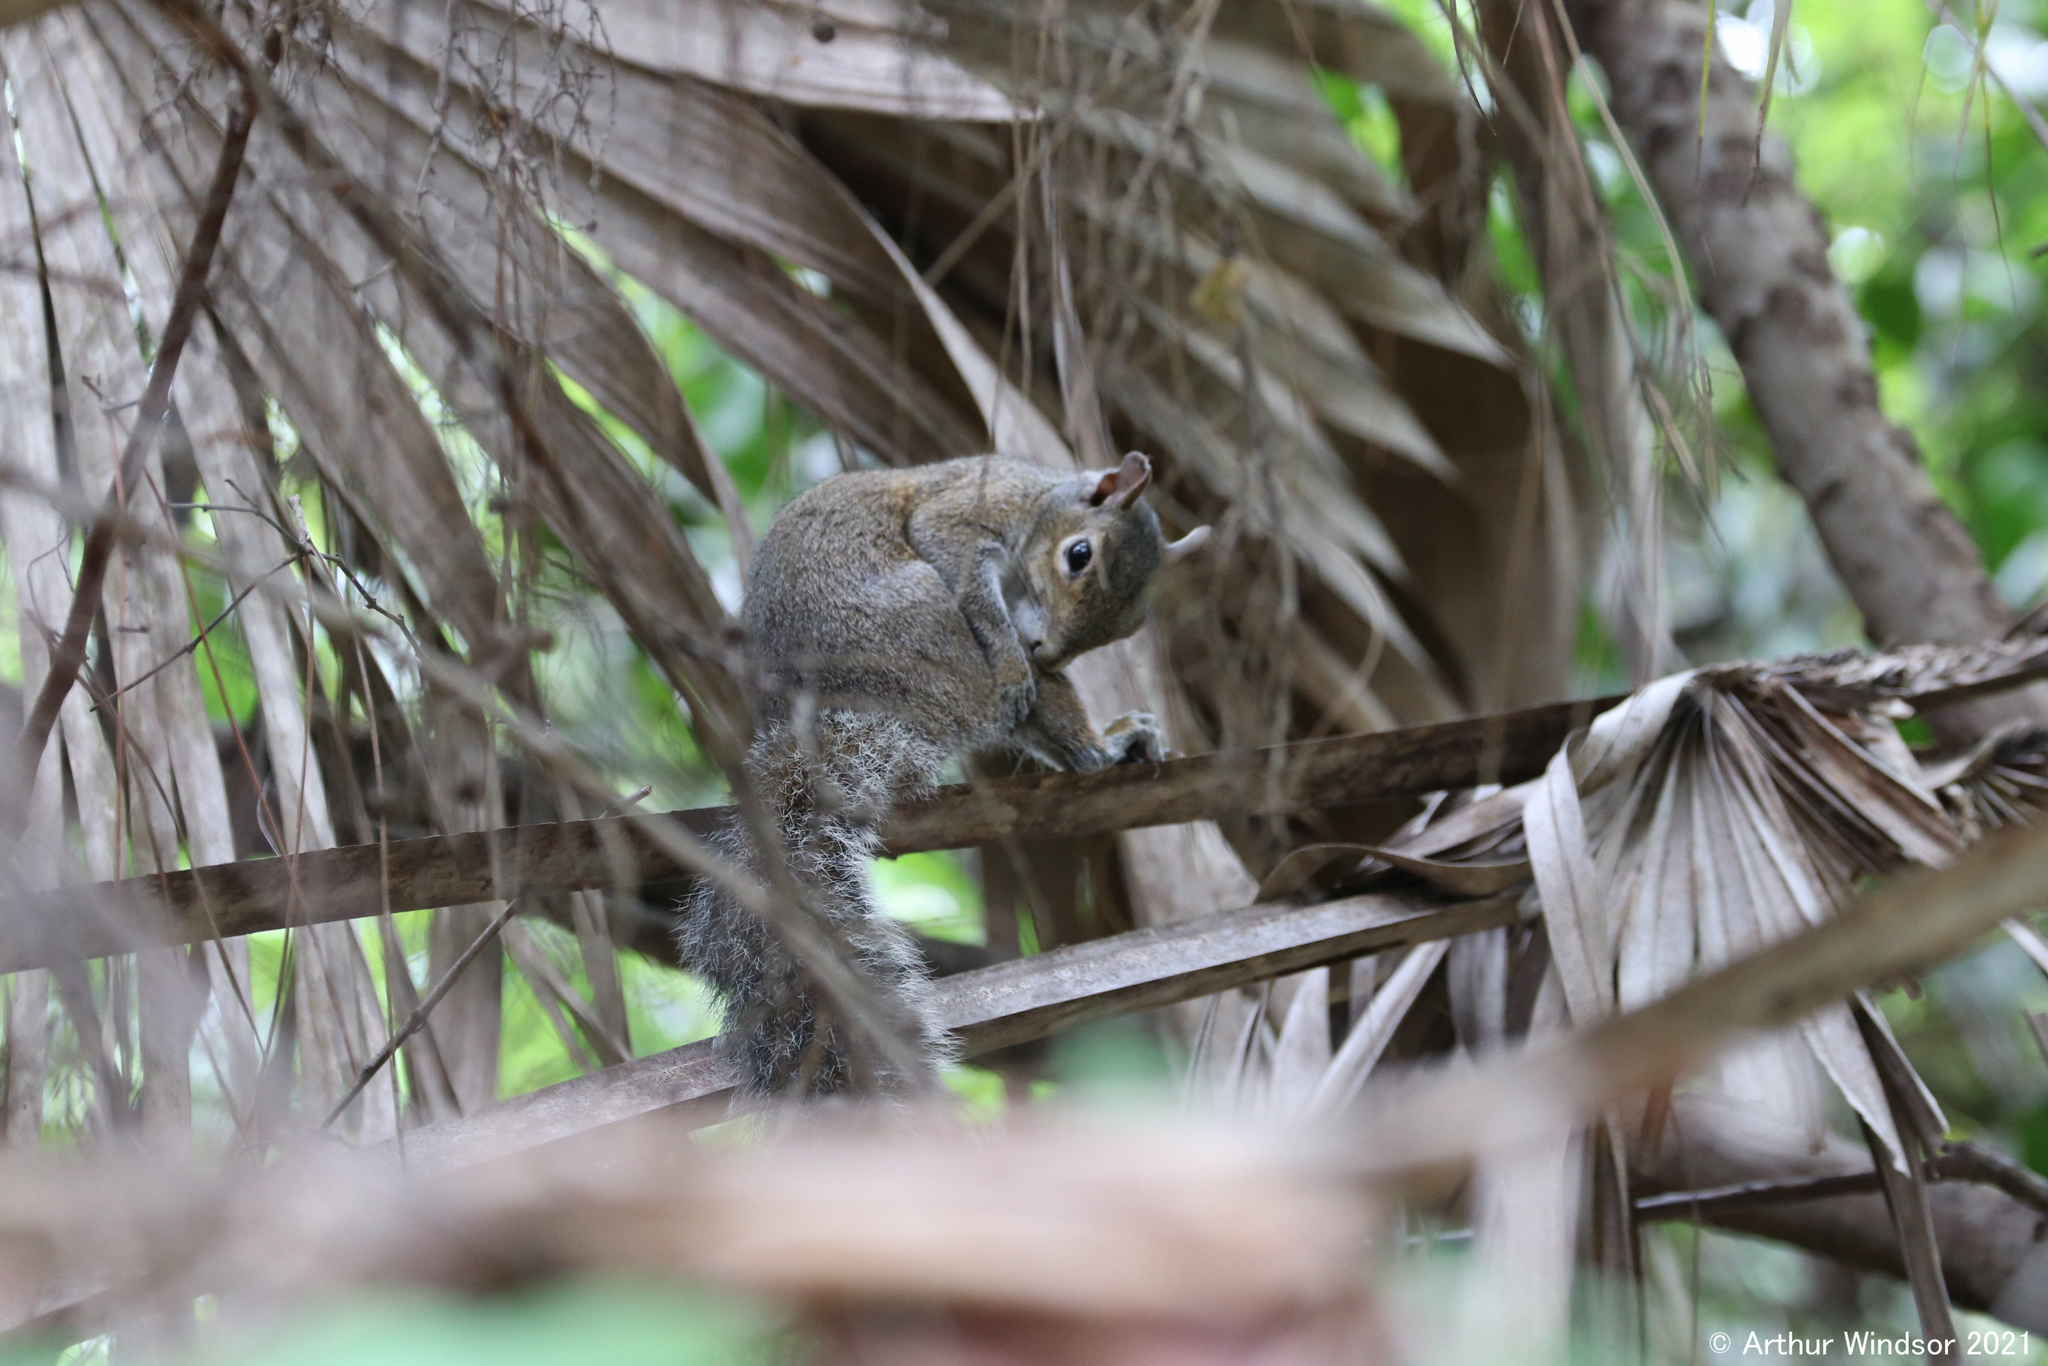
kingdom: Animalia
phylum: Chordata
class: Mammalia
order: Rodentia
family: Sciuridae
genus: Sciurus
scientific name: Sciurus carolinensis
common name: Eastern gray squirrel
